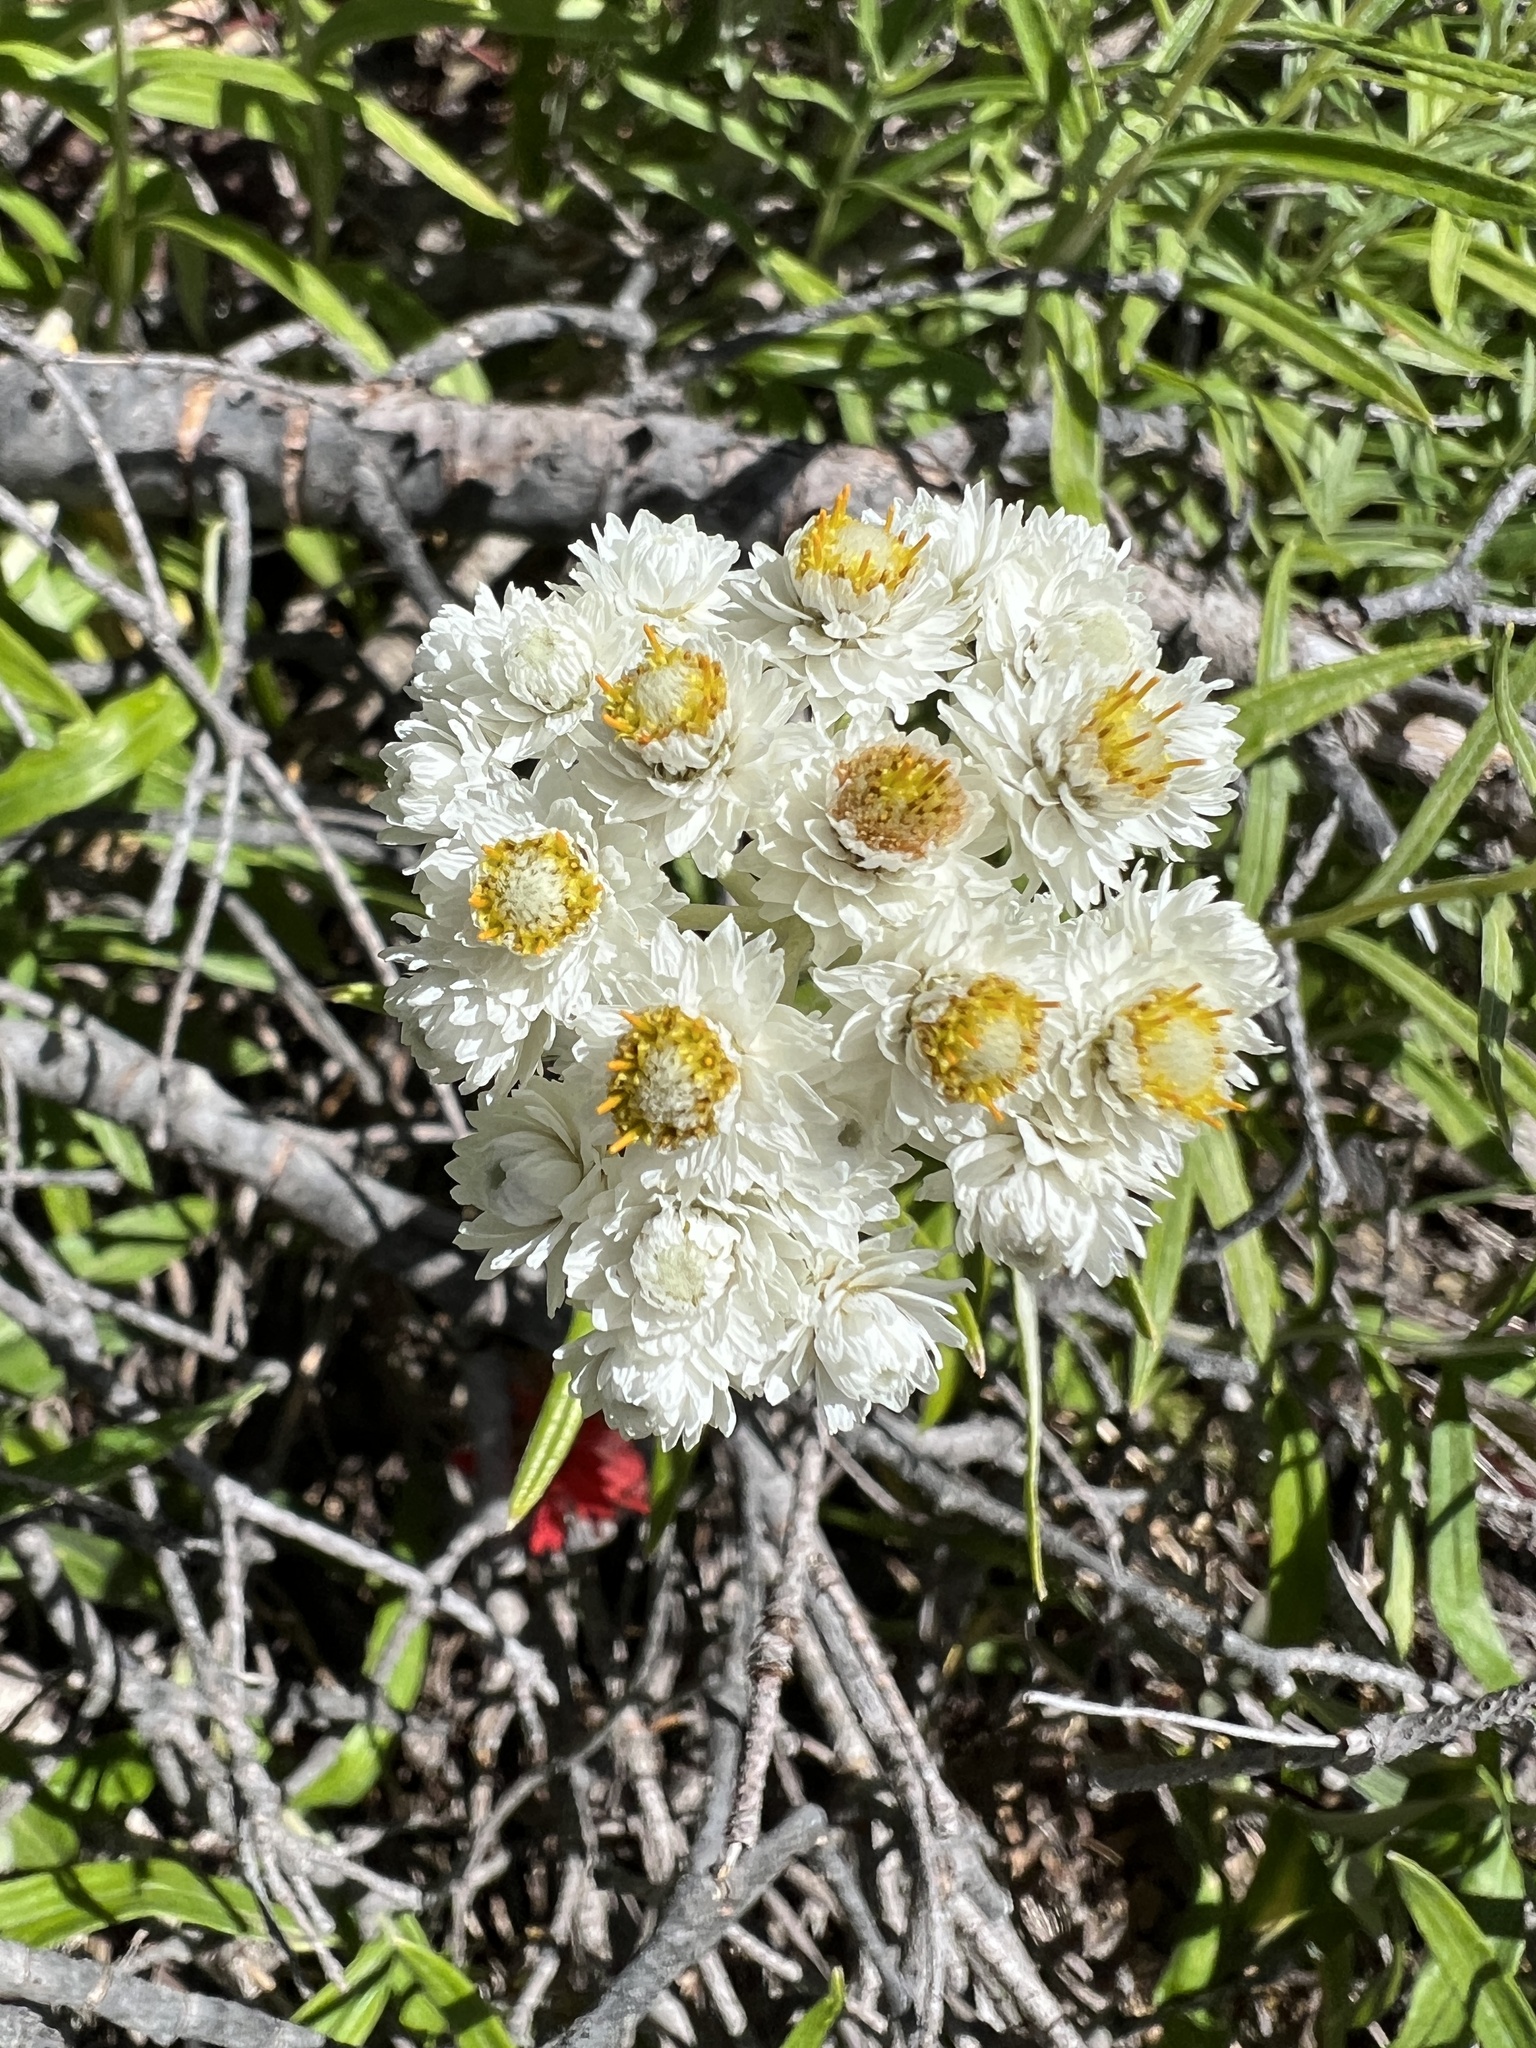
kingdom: Plantae
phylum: Tracheophyta
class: Magnoliopsida
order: Asterales
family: Asteraceae
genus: Anaphalis
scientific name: Anaphalis margaritacea
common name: Pearly everlasting
